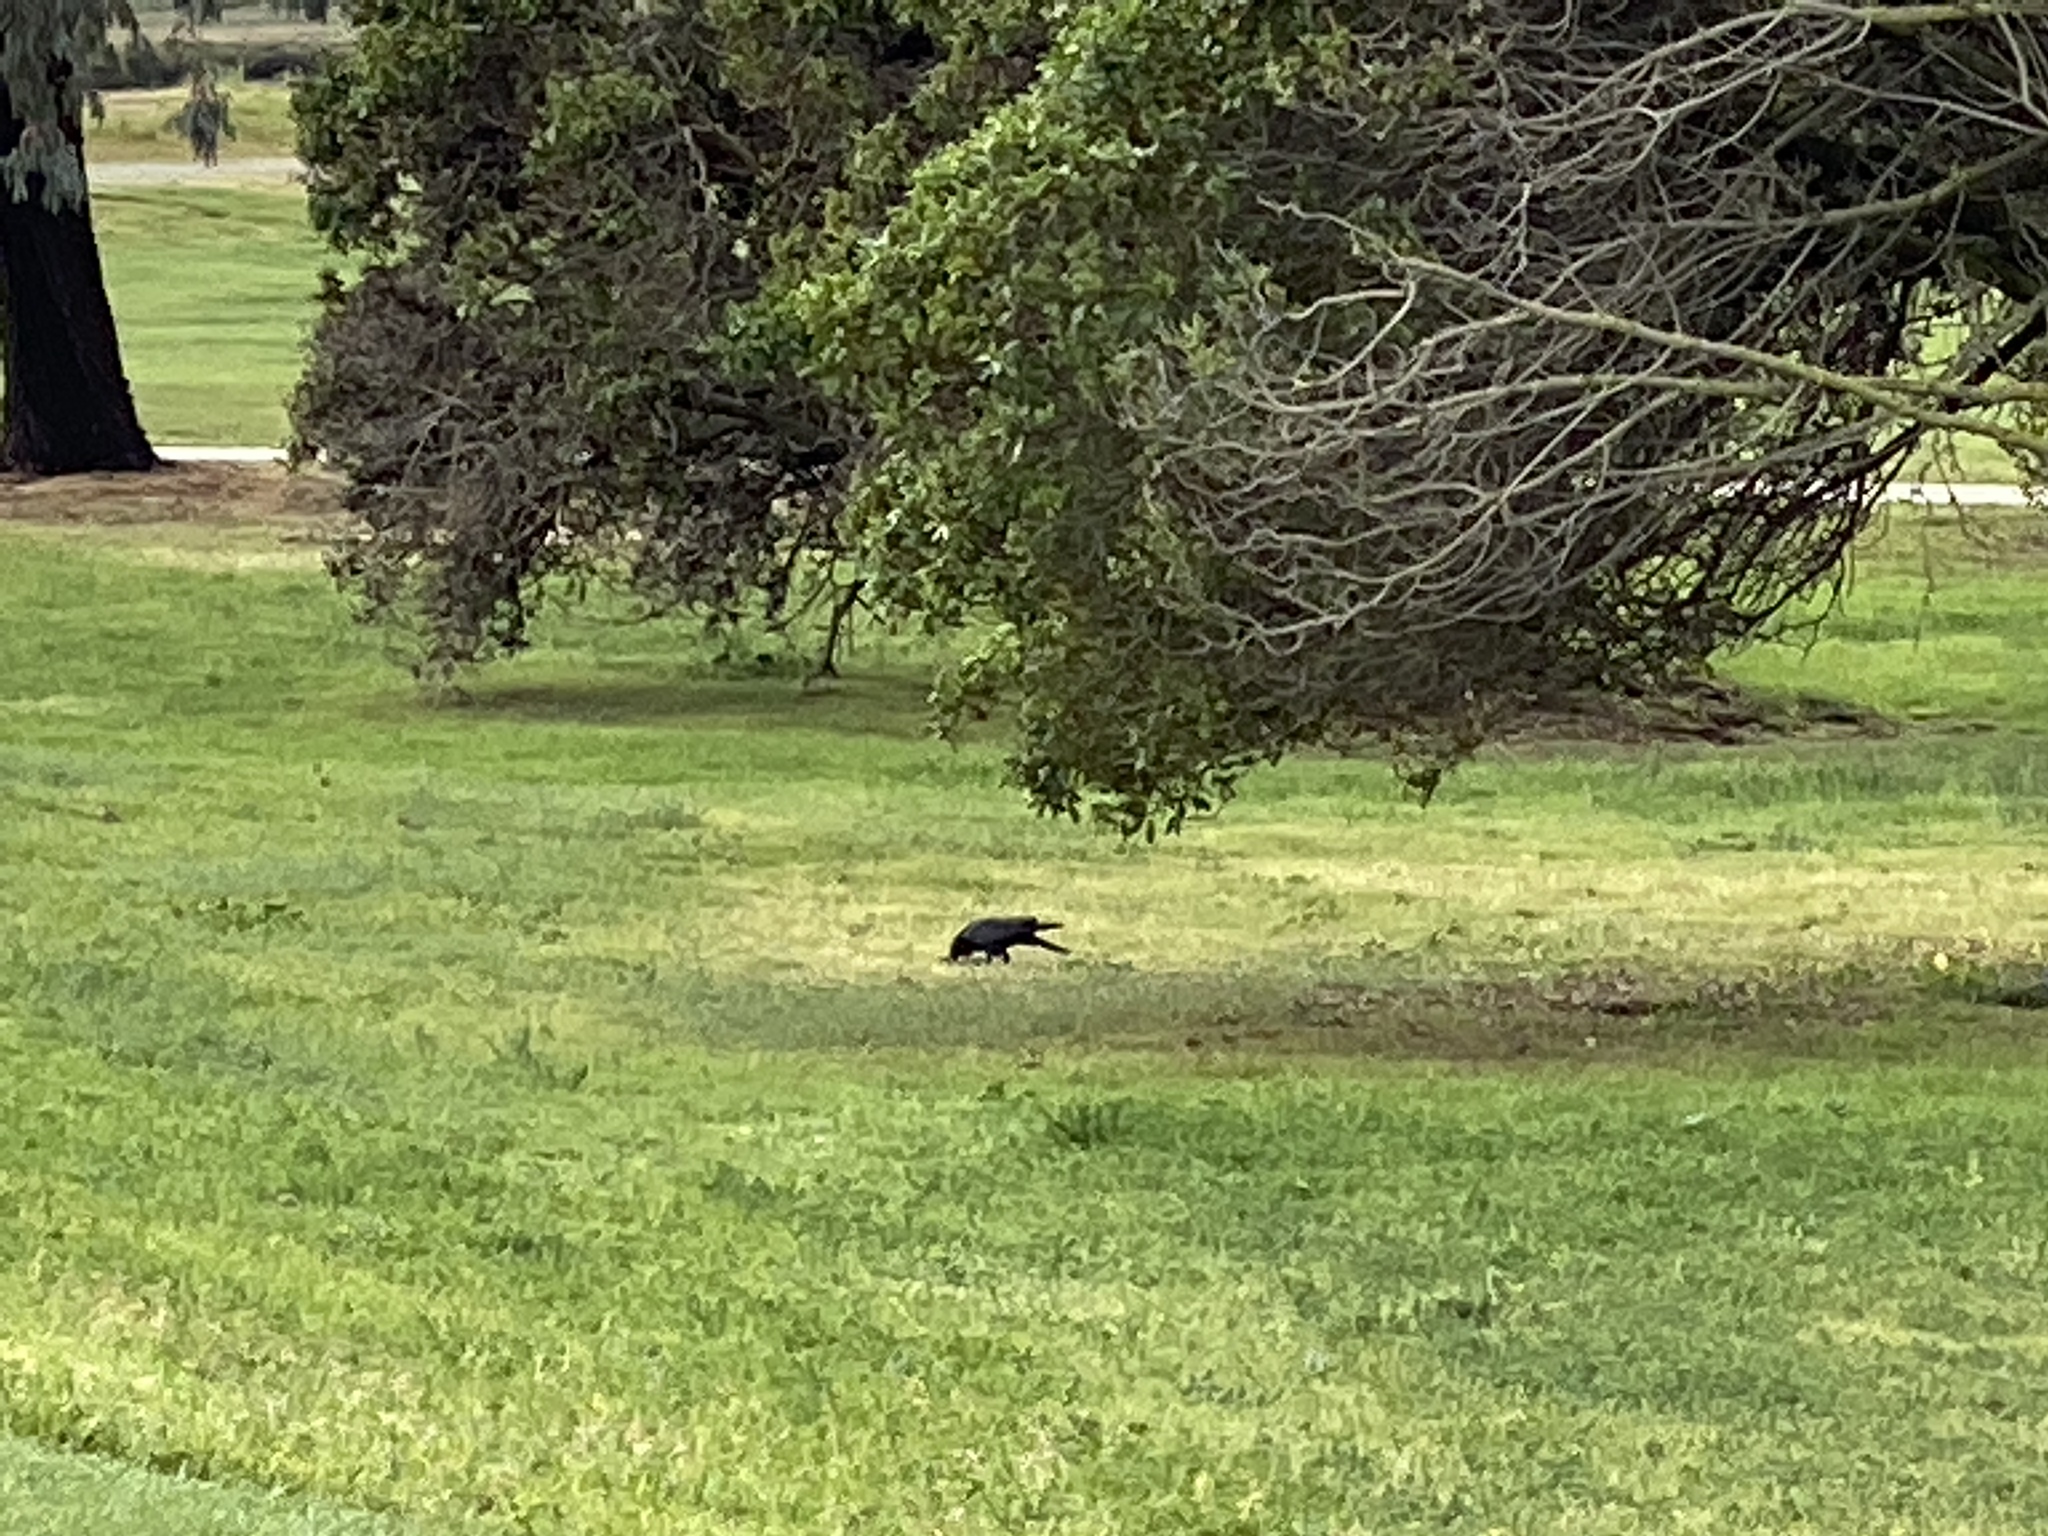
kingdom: Animalia
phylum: Chordata
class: Aves
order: Passeriformes
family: Corvidae
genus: Corvus
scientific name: Corvus brachyrhynchos
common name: American crow
